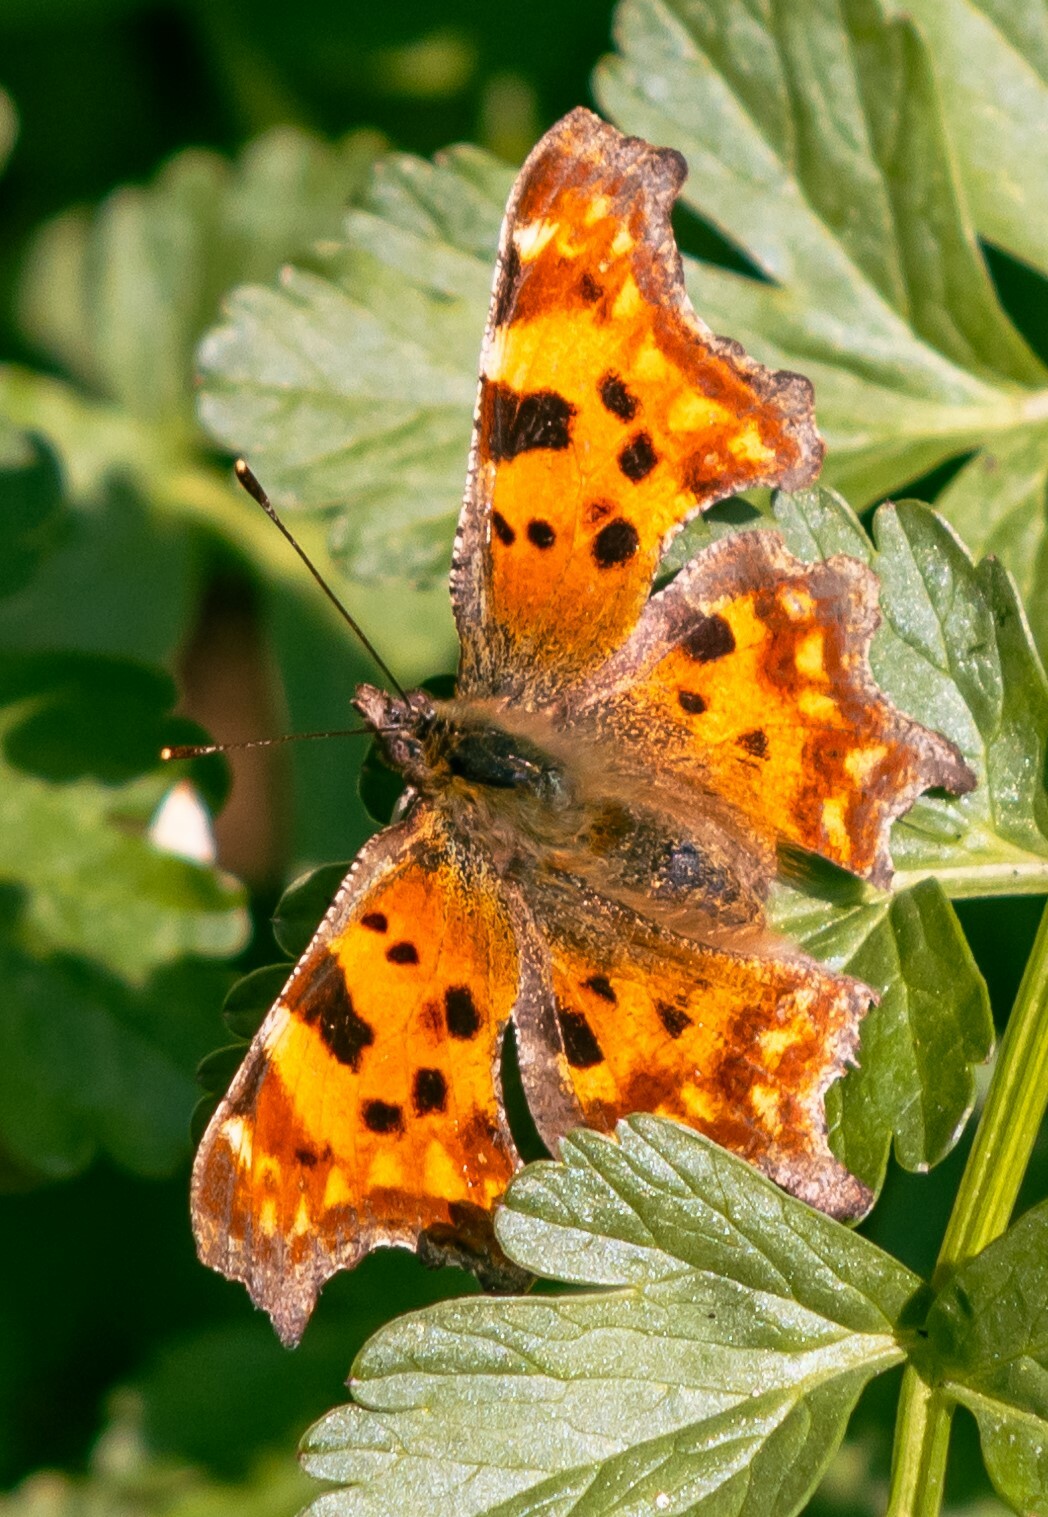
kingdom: Animalia
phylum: Arthropoda
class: Insecta
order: Lepidoptera
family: Nymphalidae
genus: Polygonia
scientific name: Polygonia c-album
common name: Comma
